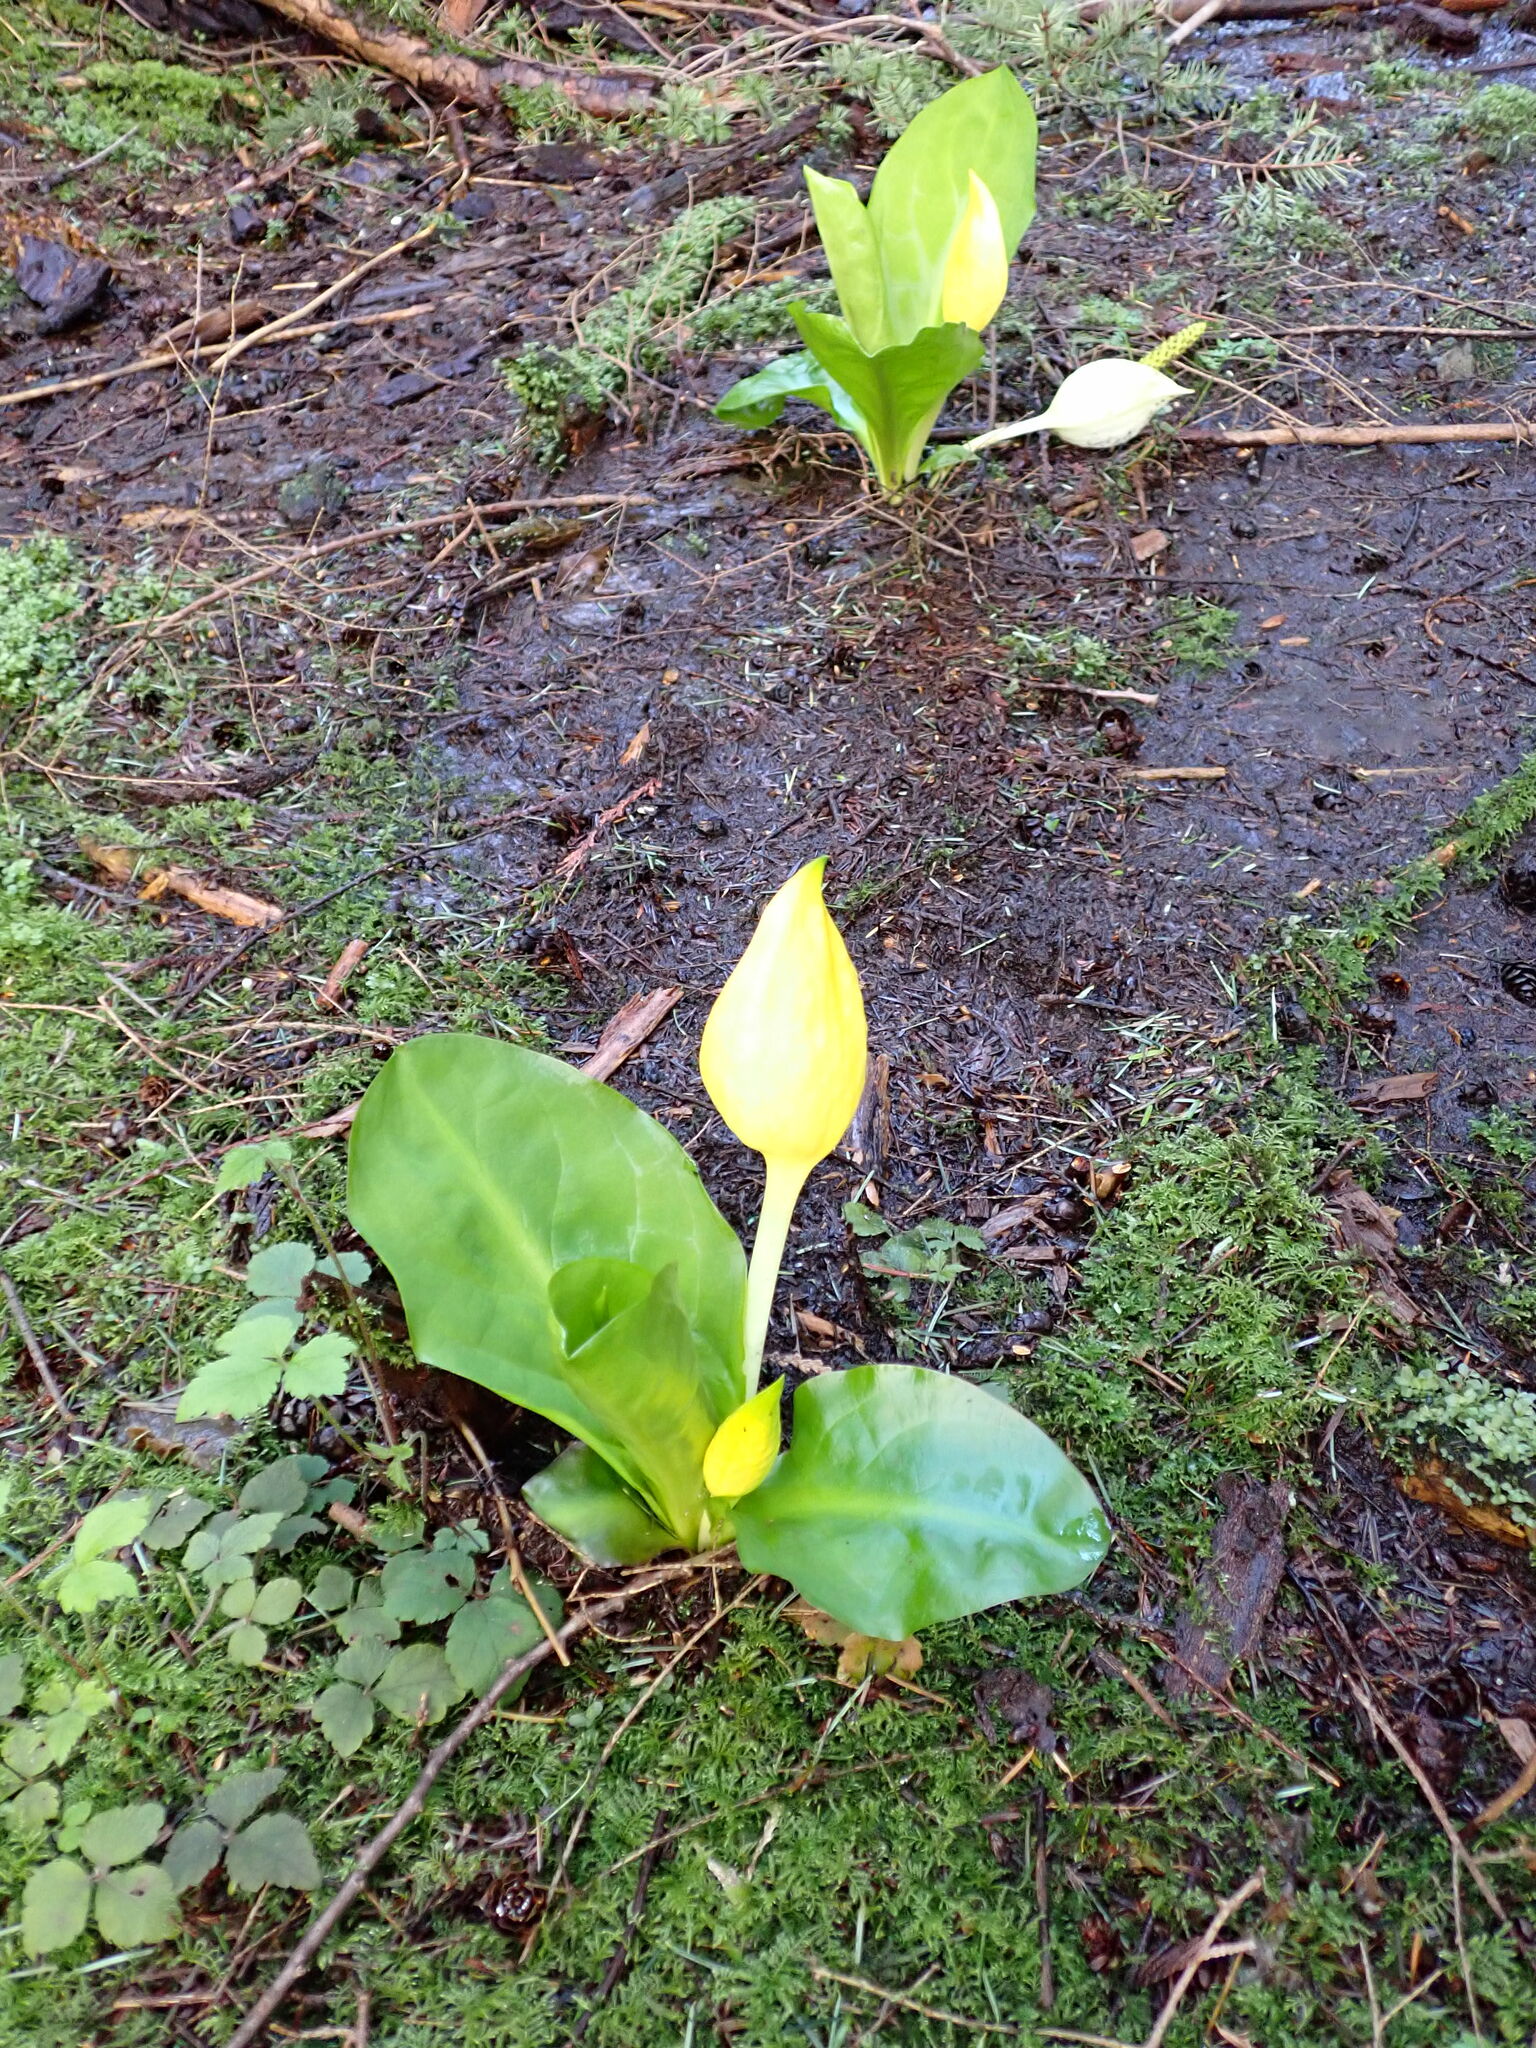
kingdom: Plantae
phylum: Tracheophyta
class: Liliopsida
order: Alismatales
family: Araceae
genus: Lysichiton
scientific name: Lysichiton americanus
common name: American skunk cabbage
